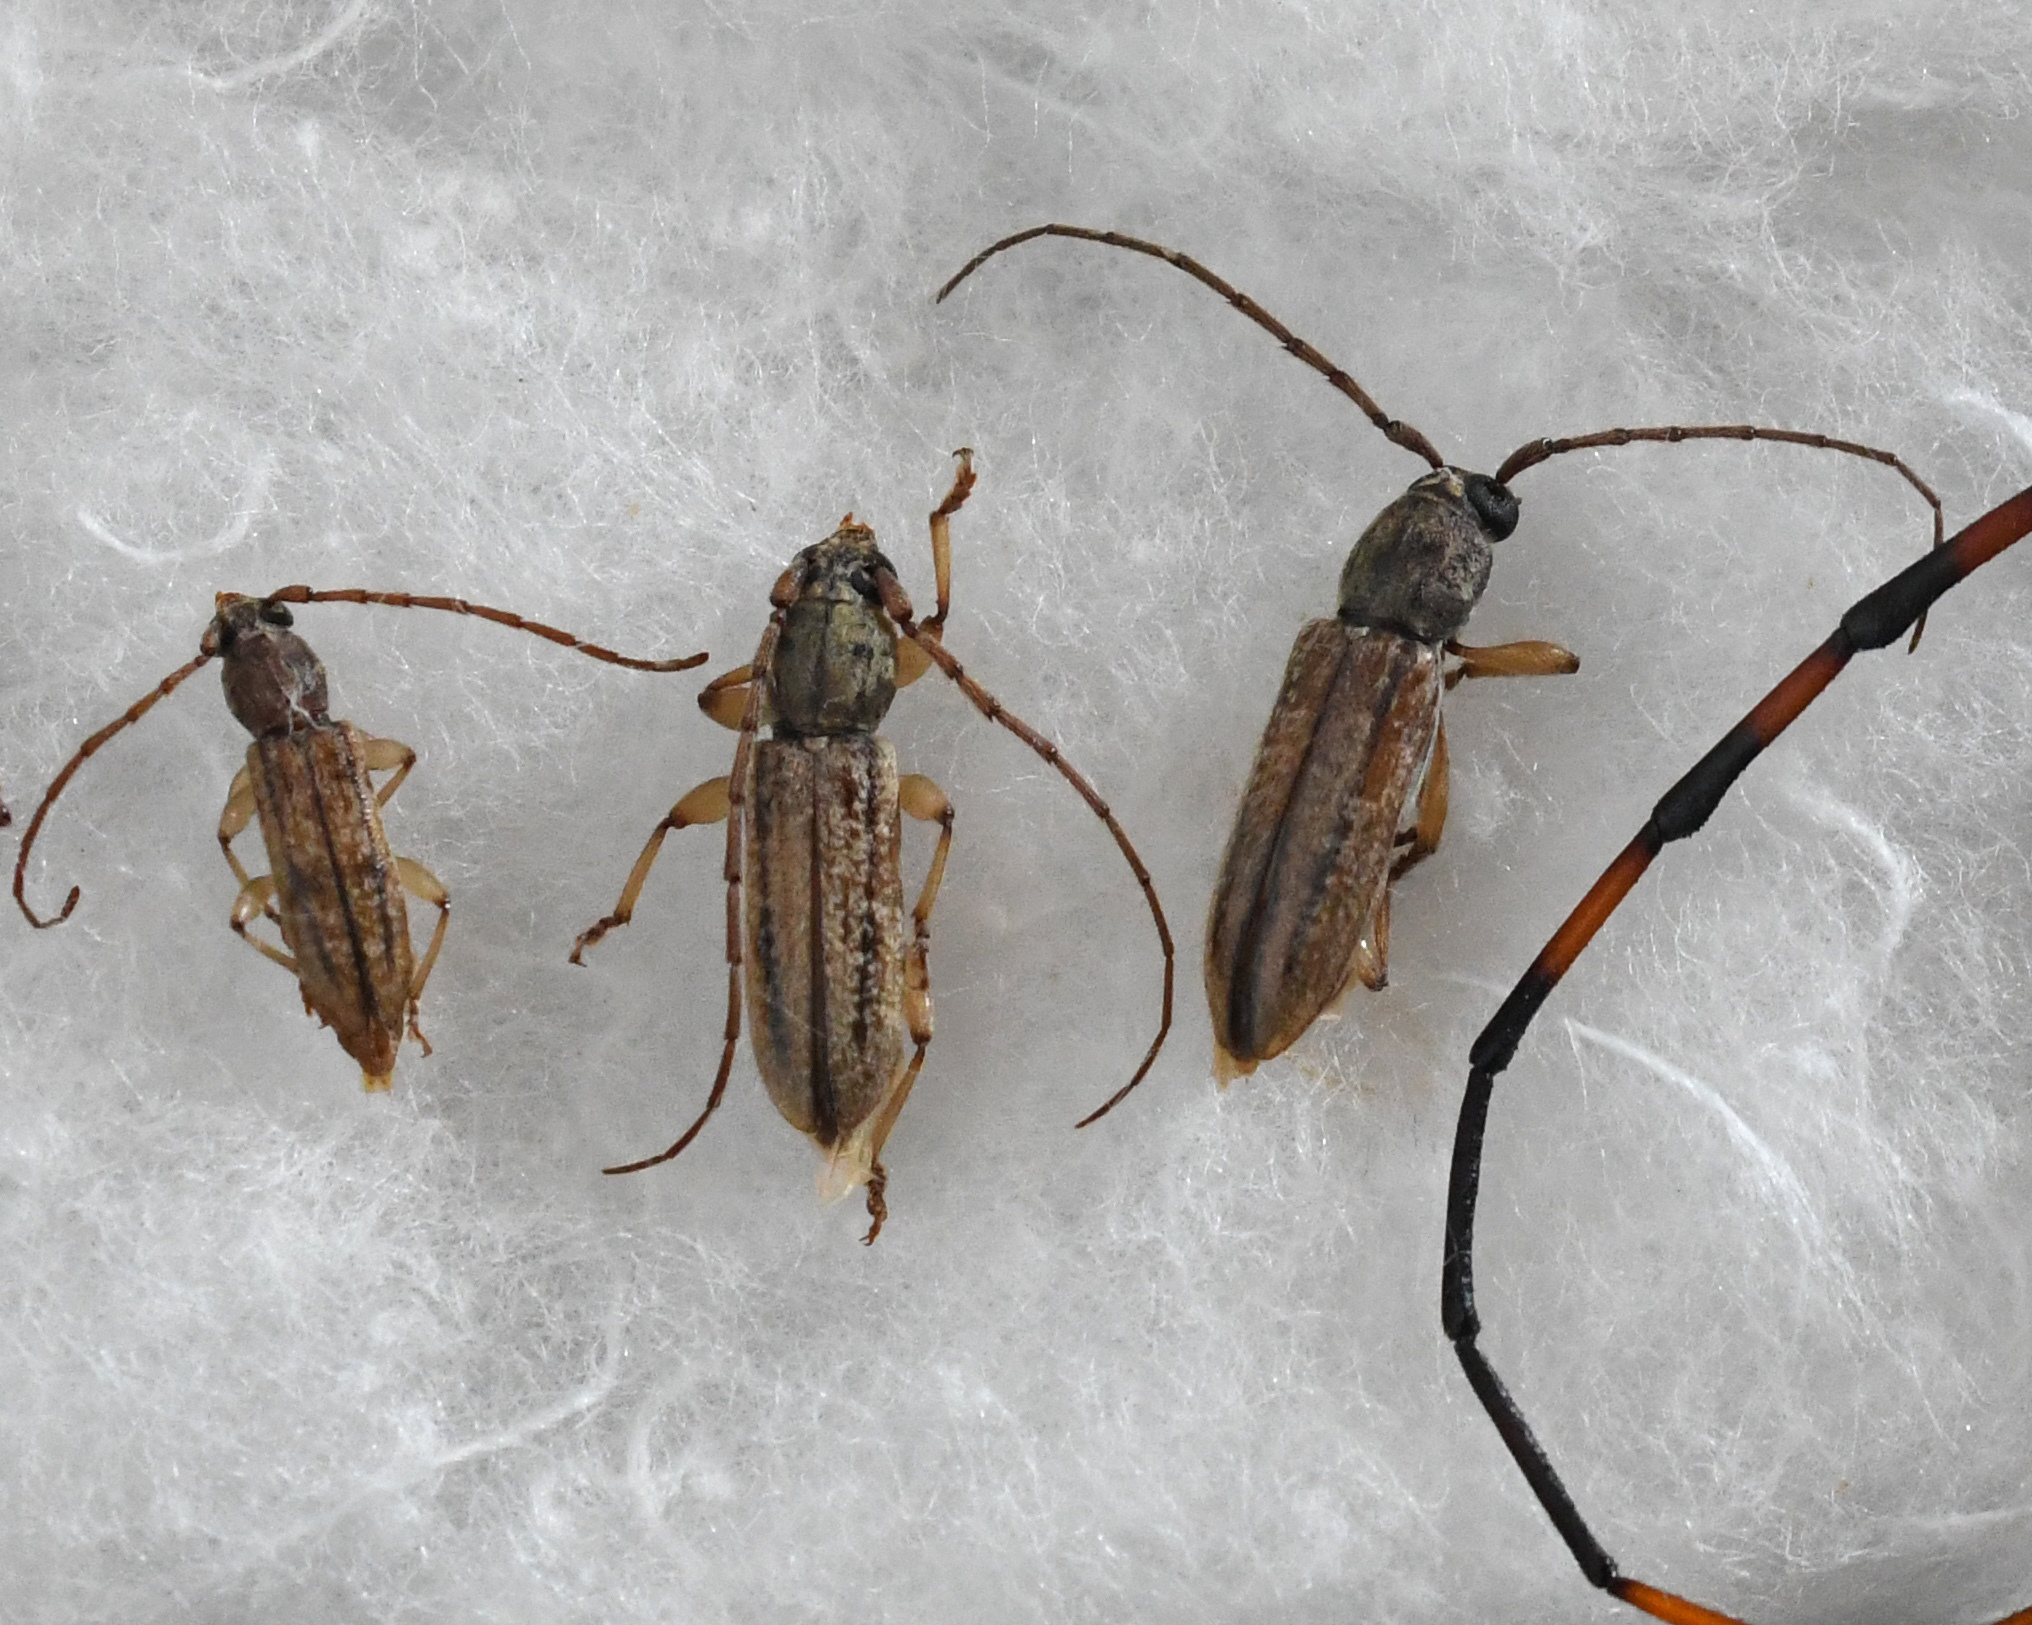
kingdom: Animalia
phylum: Arthropoda
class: Insecta
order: Coleoptera
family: Cerambycidae
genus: Anelaphus
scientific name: Anelaphus cinereus
